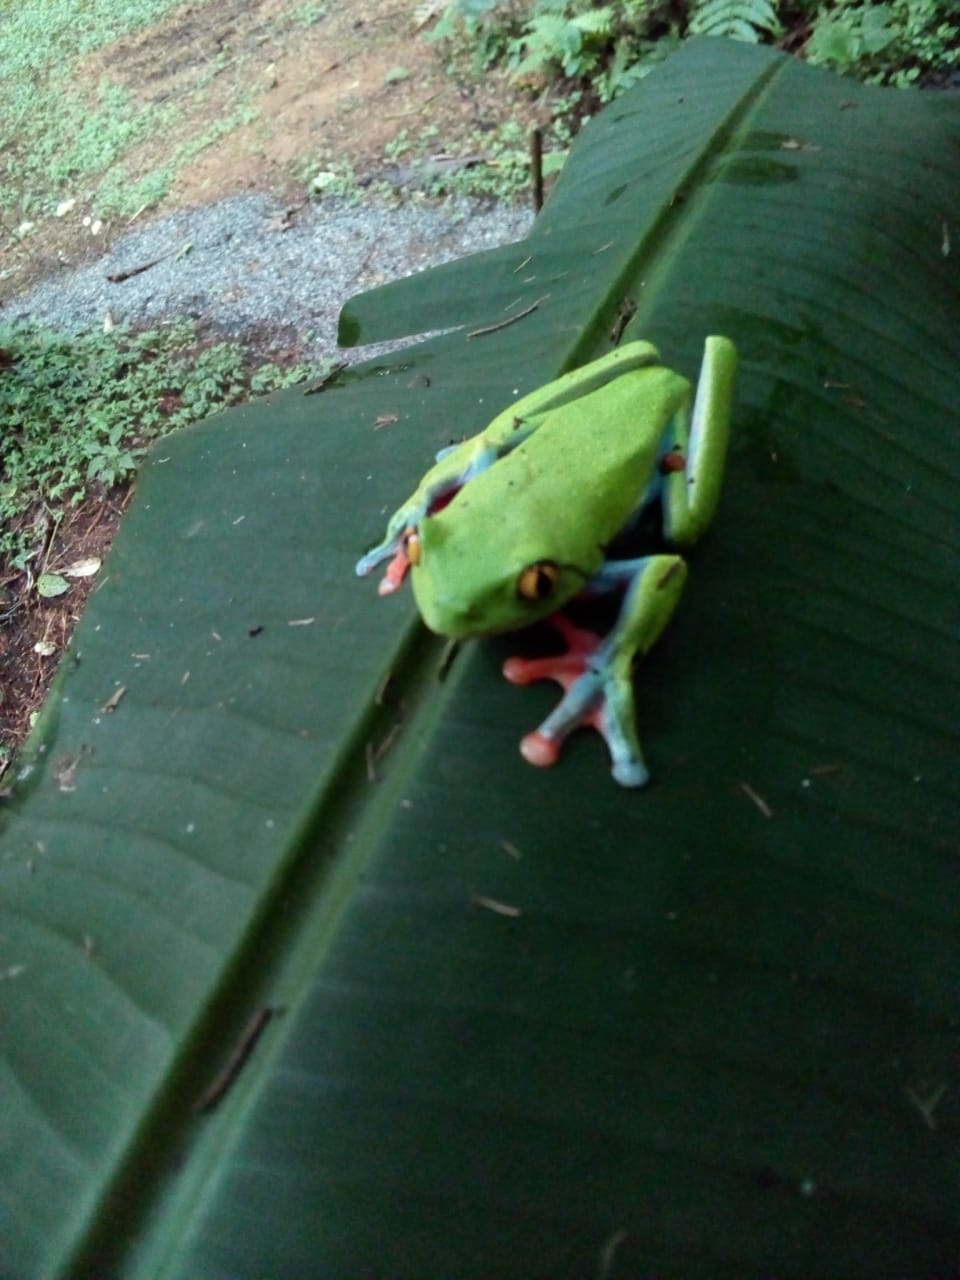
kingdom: Animalia
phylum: Chordata
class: Amphibia
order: Anura
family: Phyllomedusidae
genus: Agalychnis
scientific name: Agalychnis annae
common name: Blue-sided treefrog
